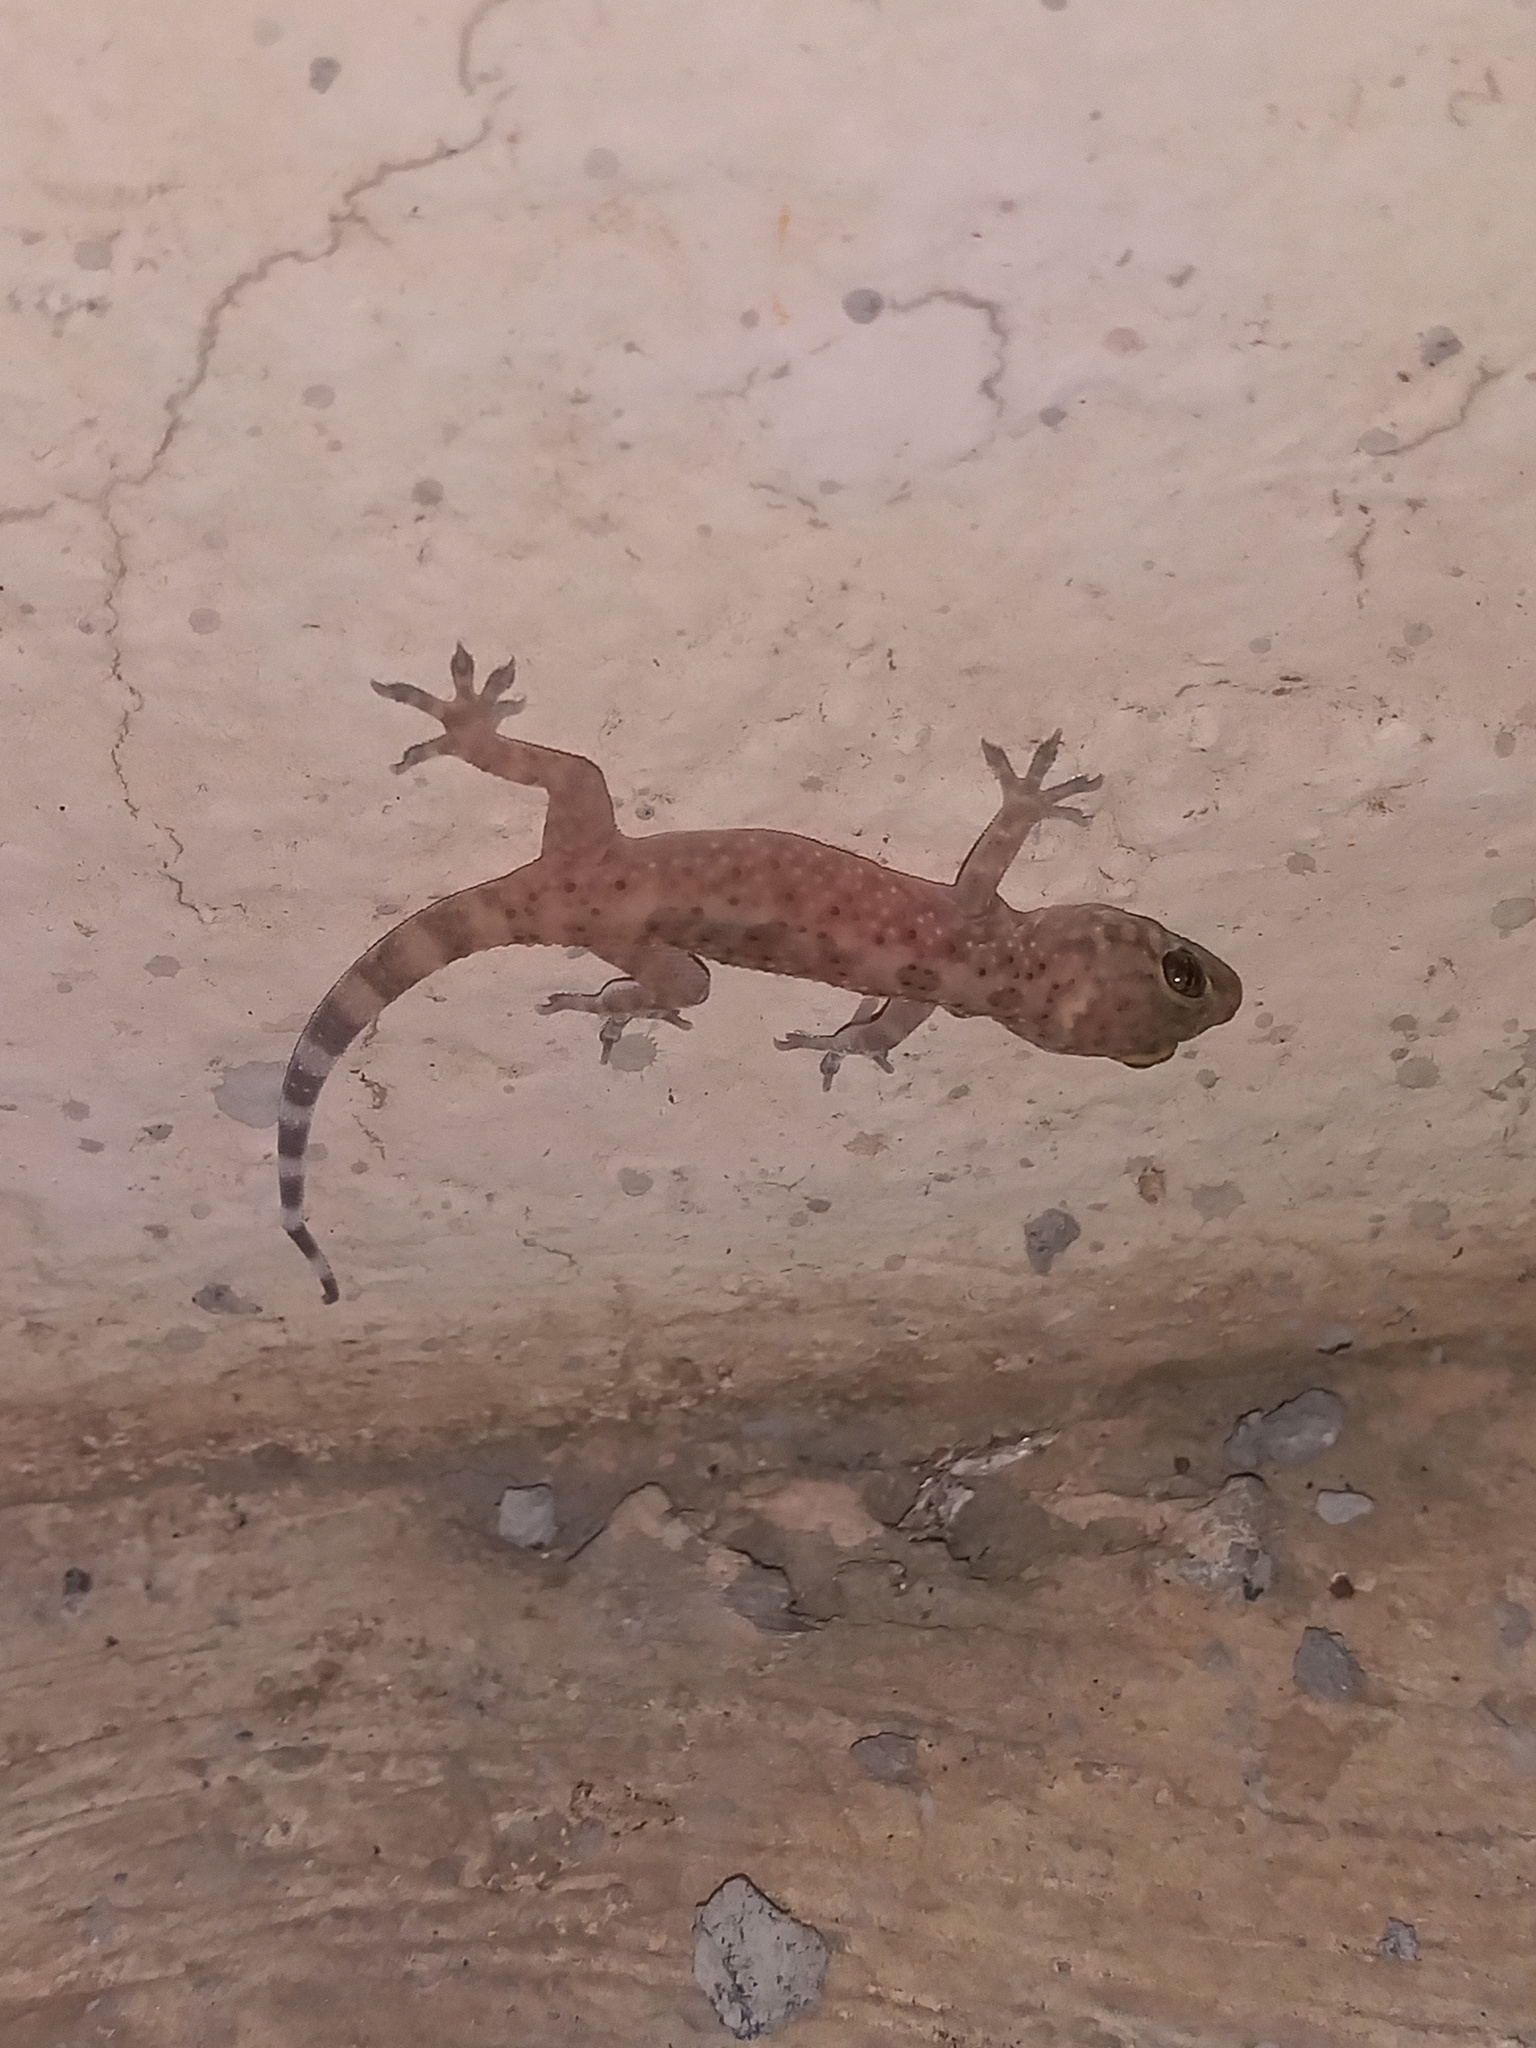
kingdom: Animalia
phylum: Chordata
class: Squamata
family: Gekkonidae
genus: Hemidactylus
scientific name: Hemidactylus turcicus
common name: Turkish gecko
